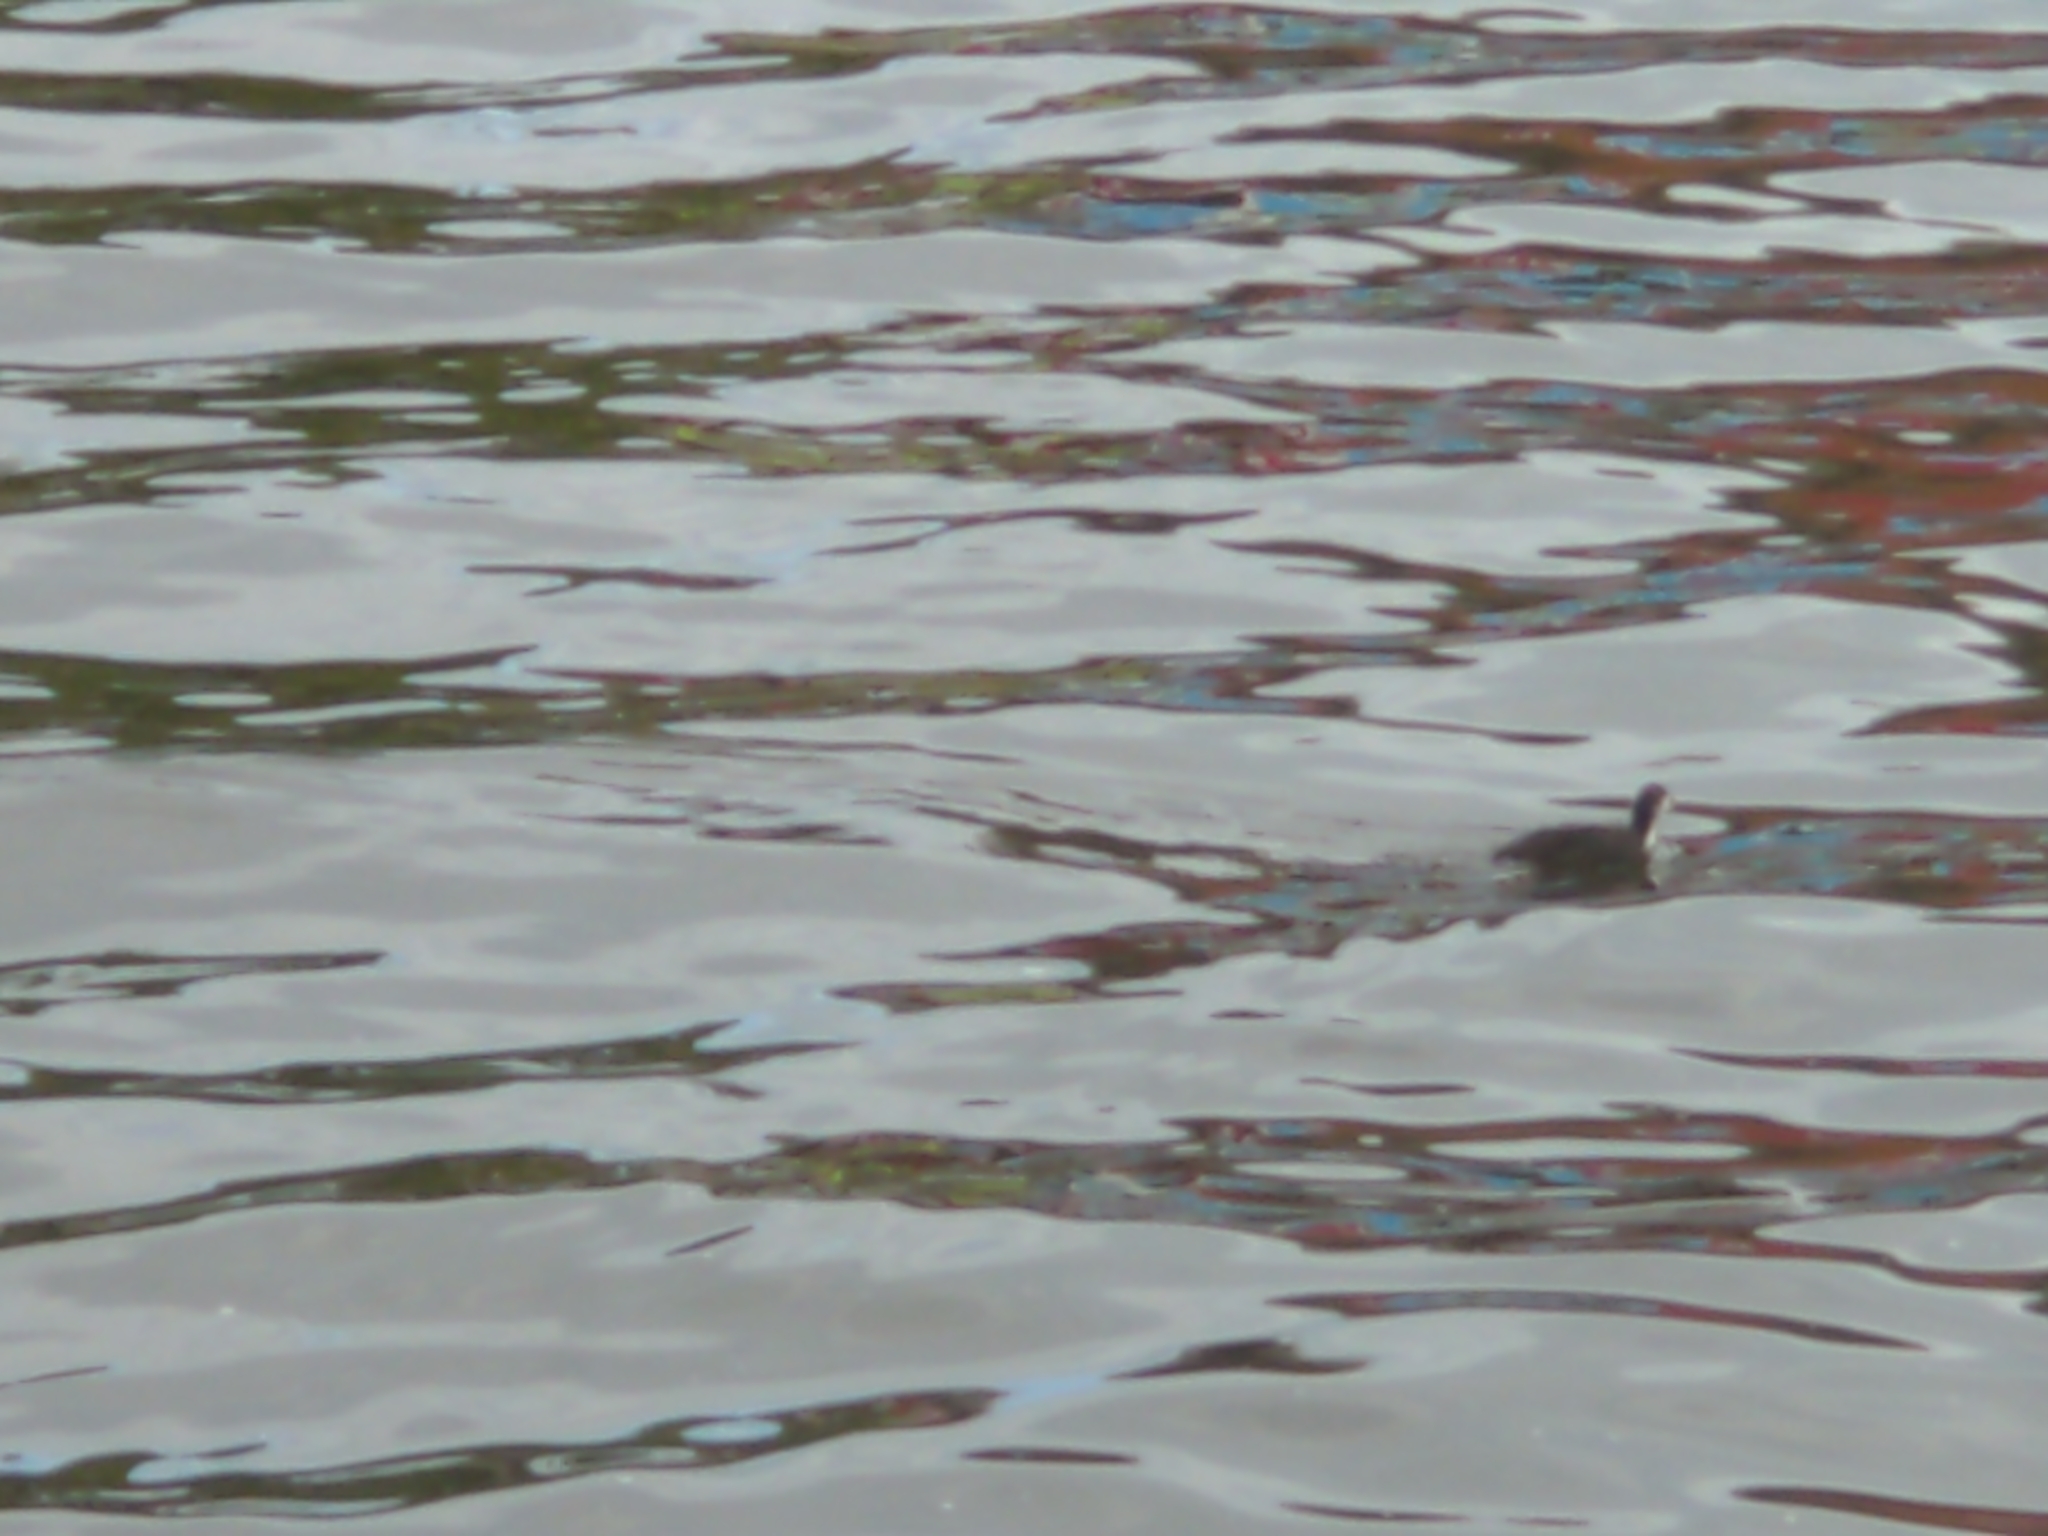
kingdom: Animalia
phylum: Chordata
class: Aves
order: Gruiformes
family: Rallidae
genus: Fulica
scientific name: Fulica atra
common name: Eurasian coot
